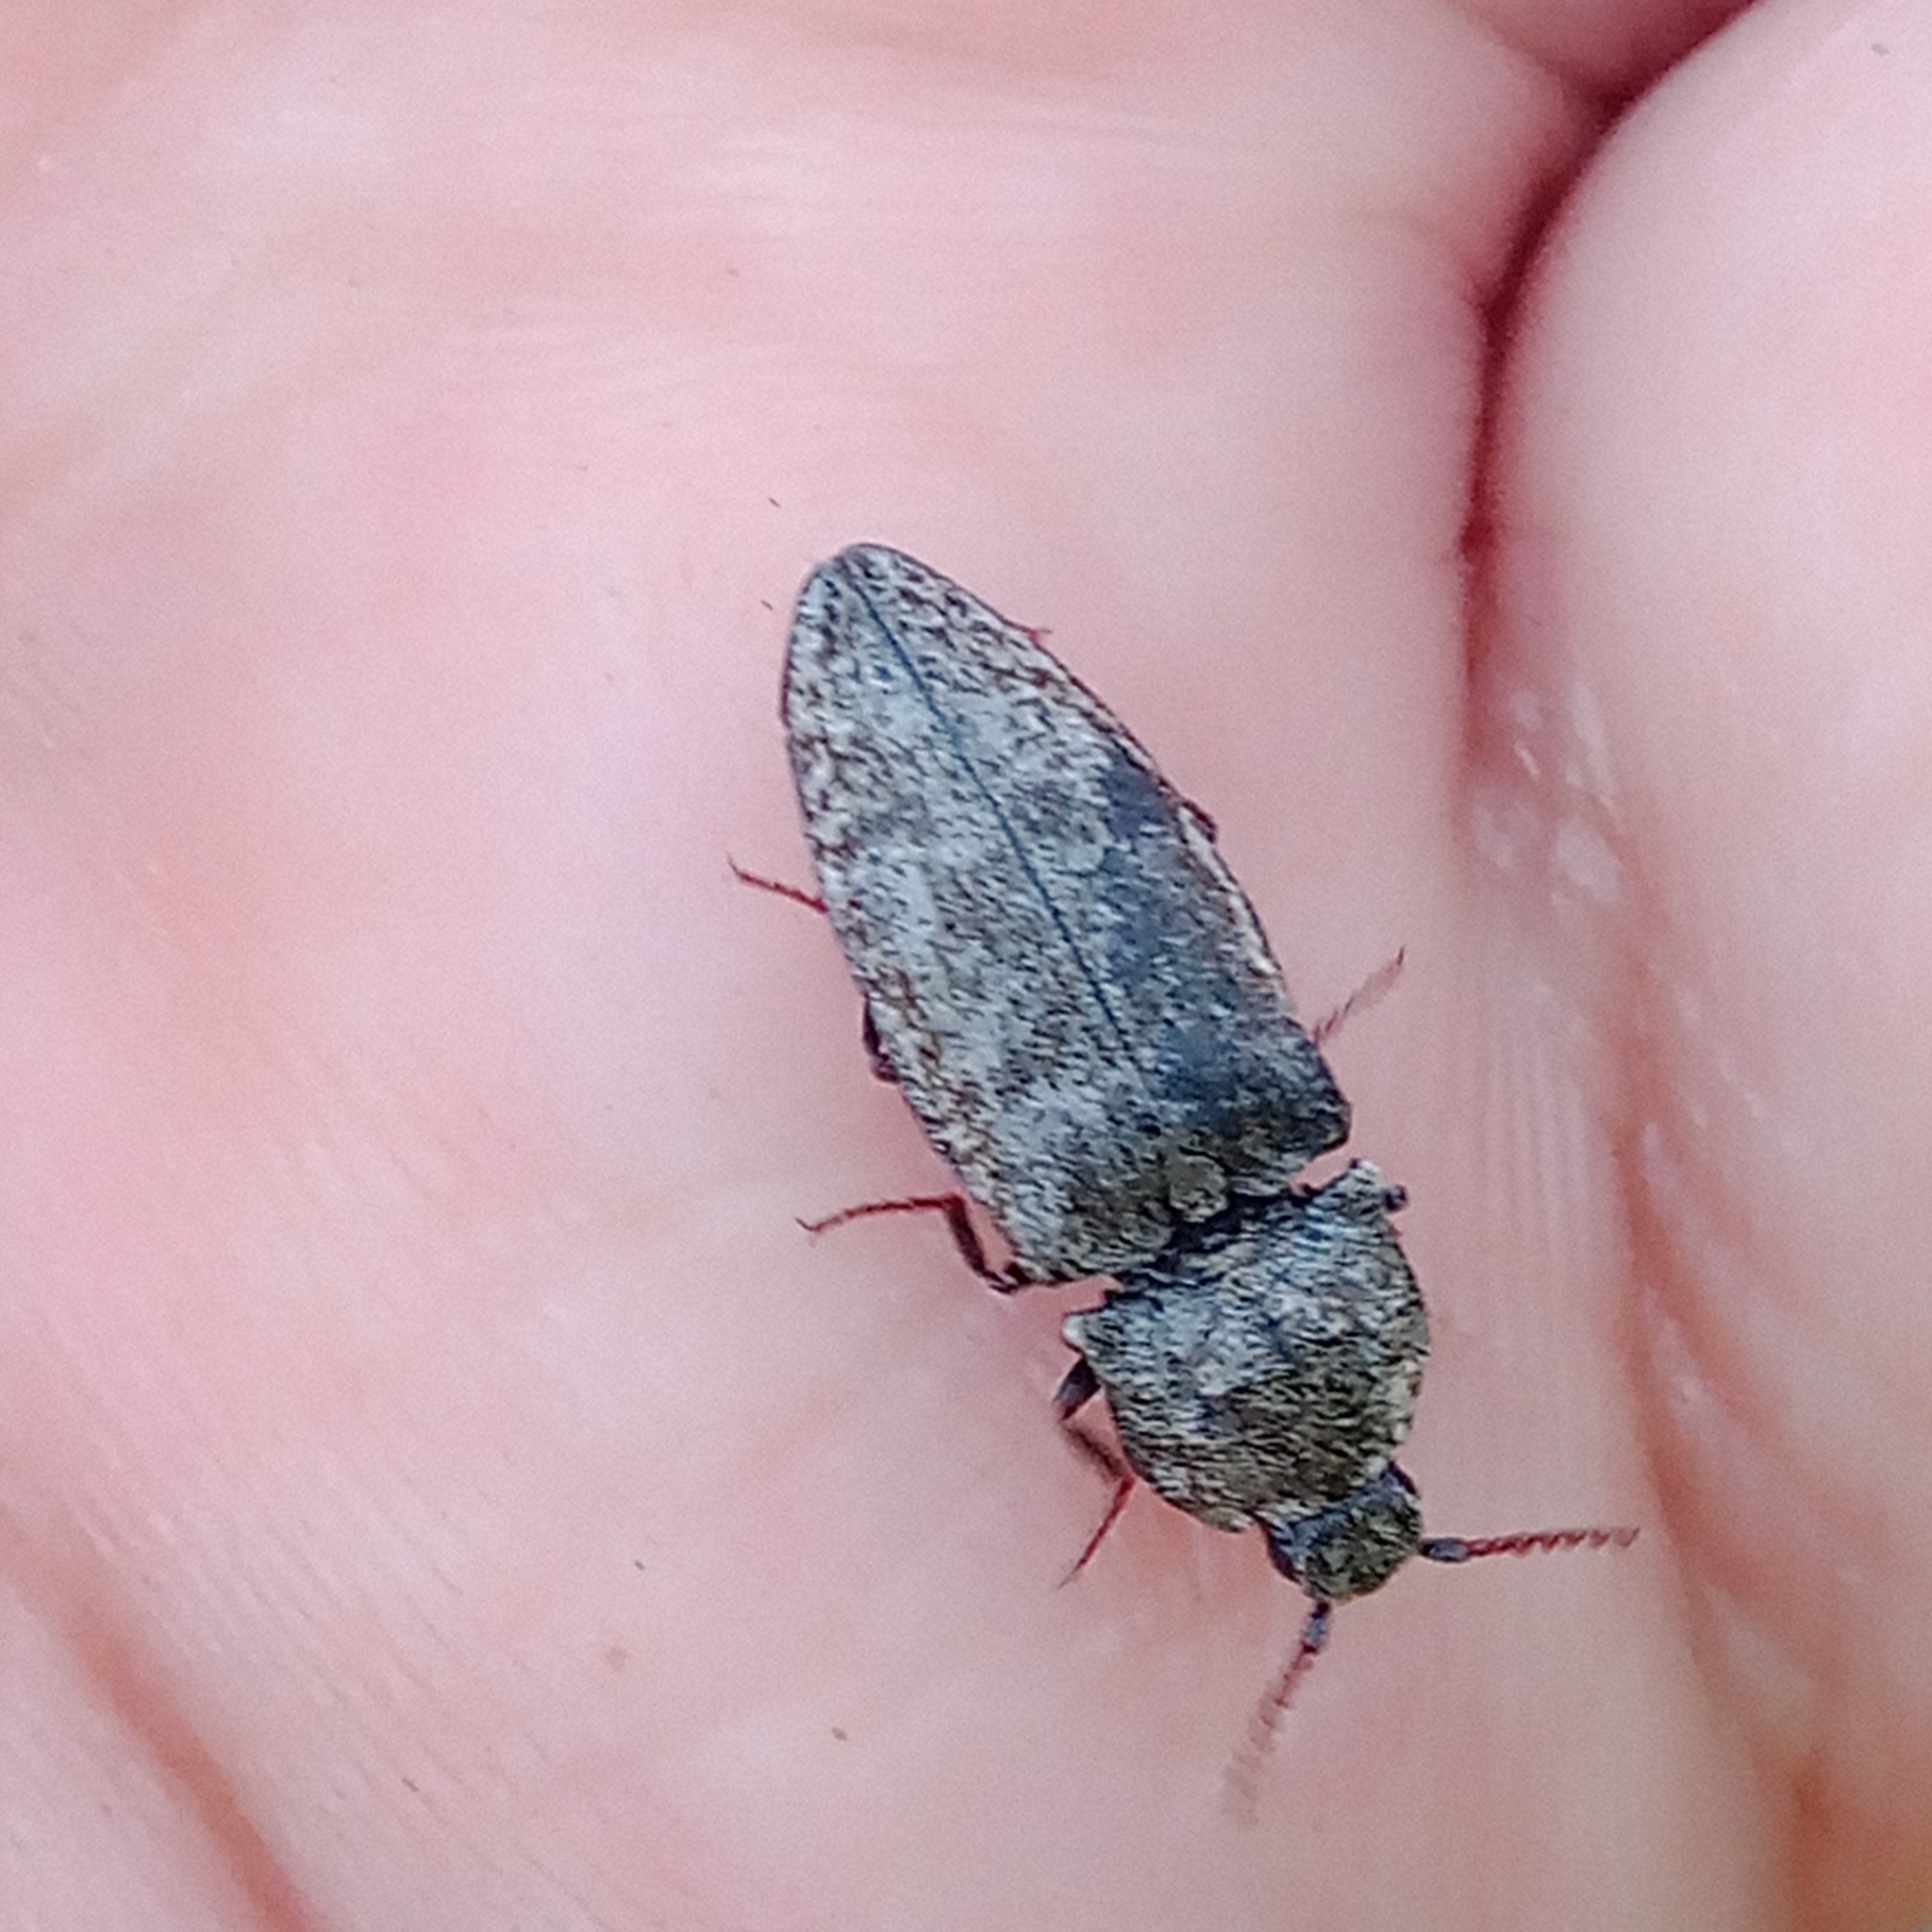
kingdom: Animalia
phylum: Arthropoda
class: Insecta
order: Coleoptera
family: Elateridae
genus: Agrypnus
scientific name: Agrypnus murinus
